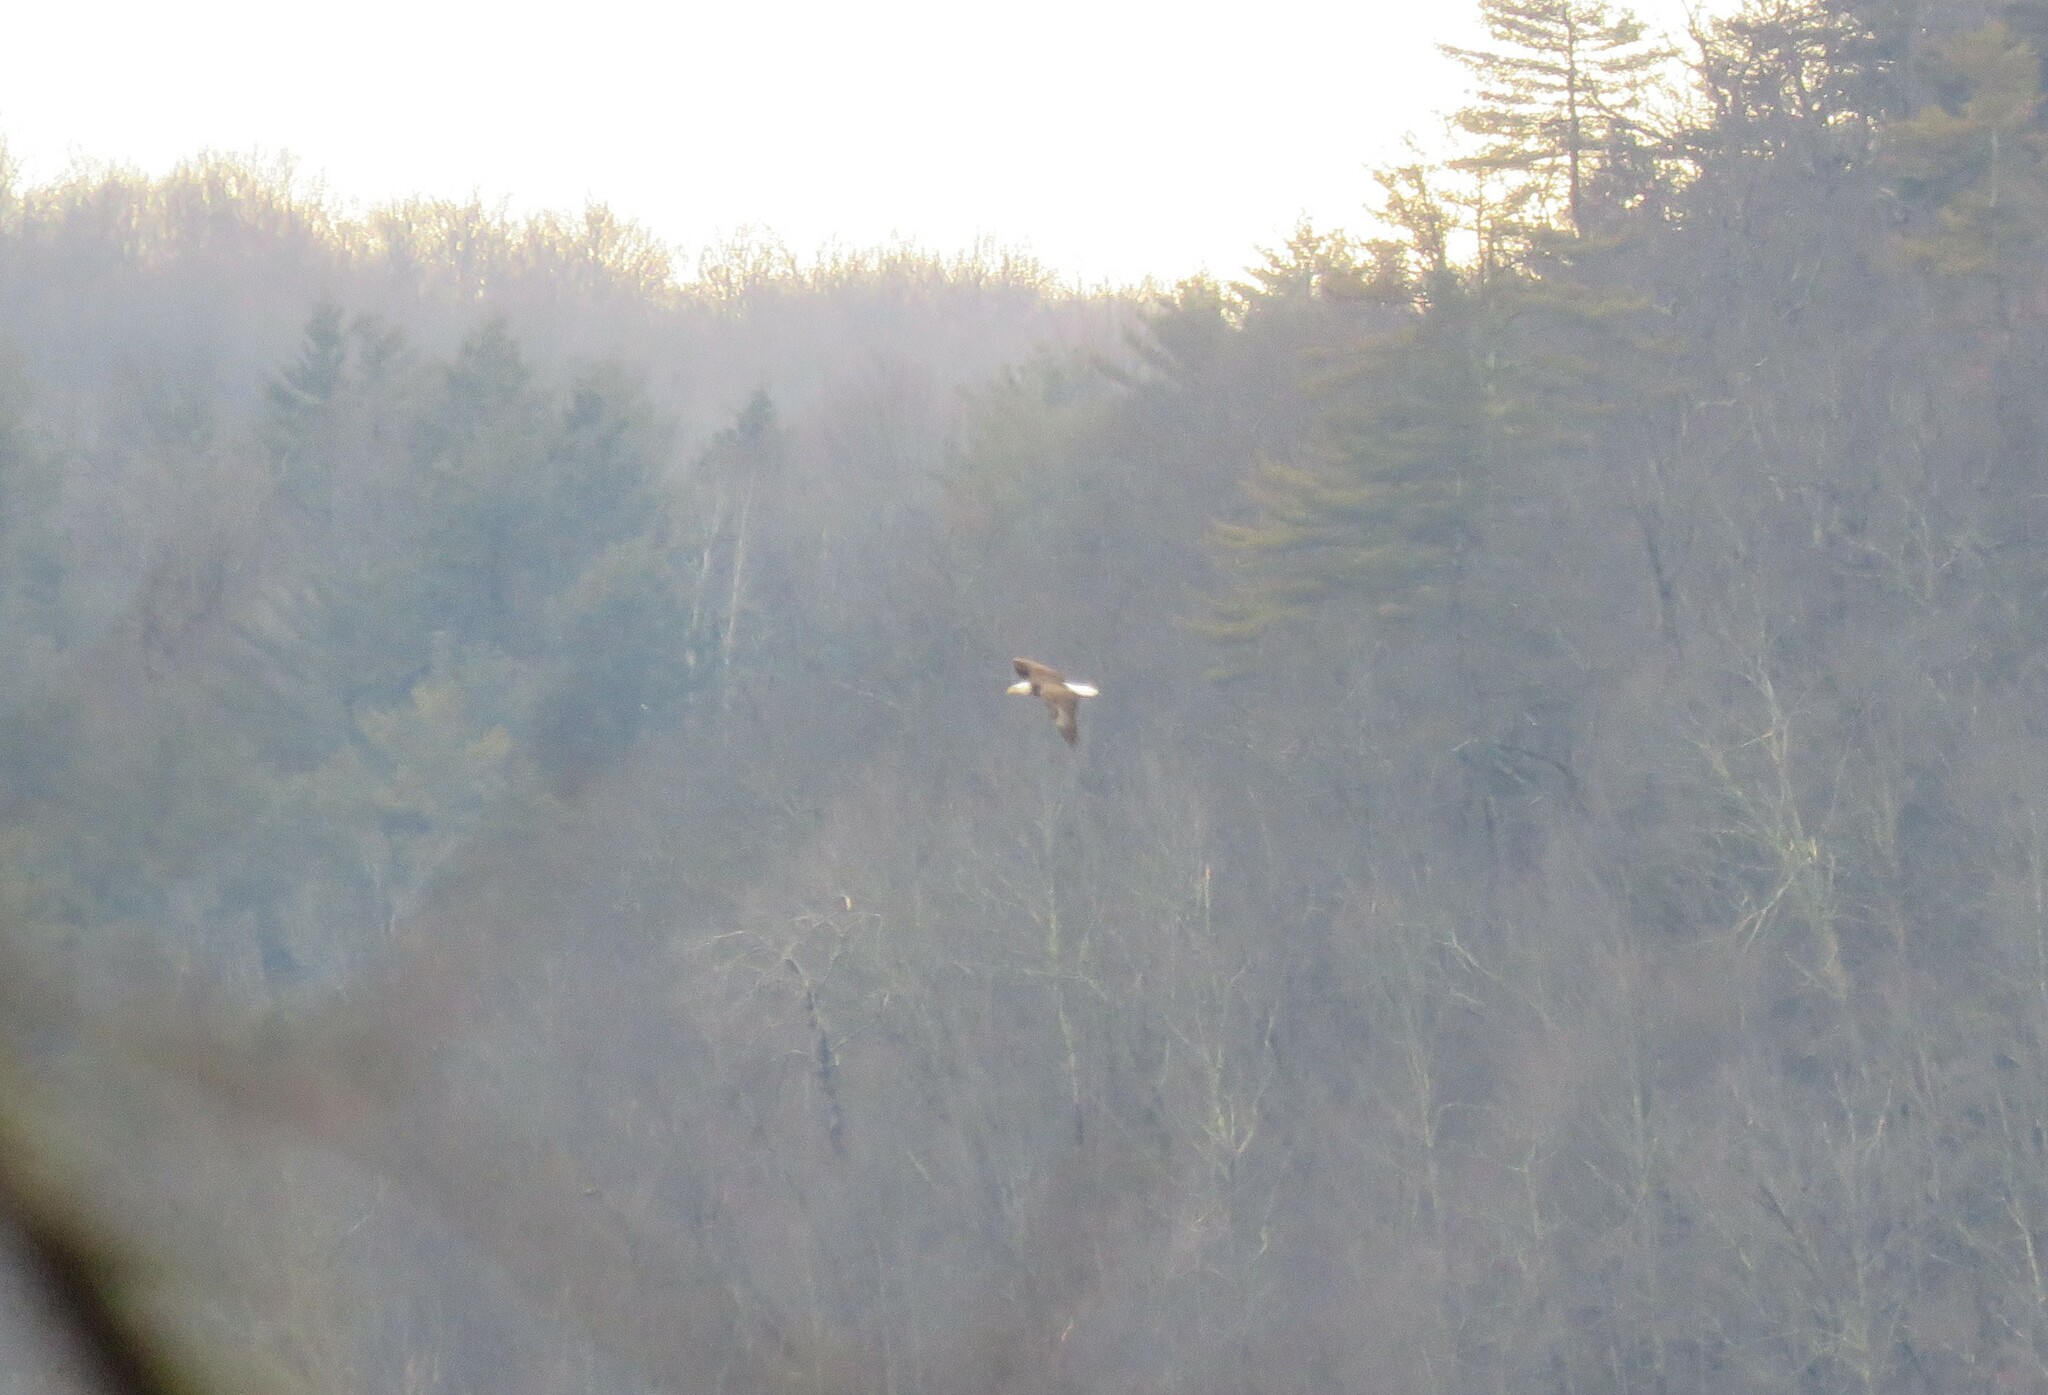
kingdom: Animalia
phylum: Chordata
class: Aves
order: Accipitriformes
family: Accipitridae
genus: Haliaeetus
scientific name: Haliaeetus leucocephalus
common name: Bald eagle
